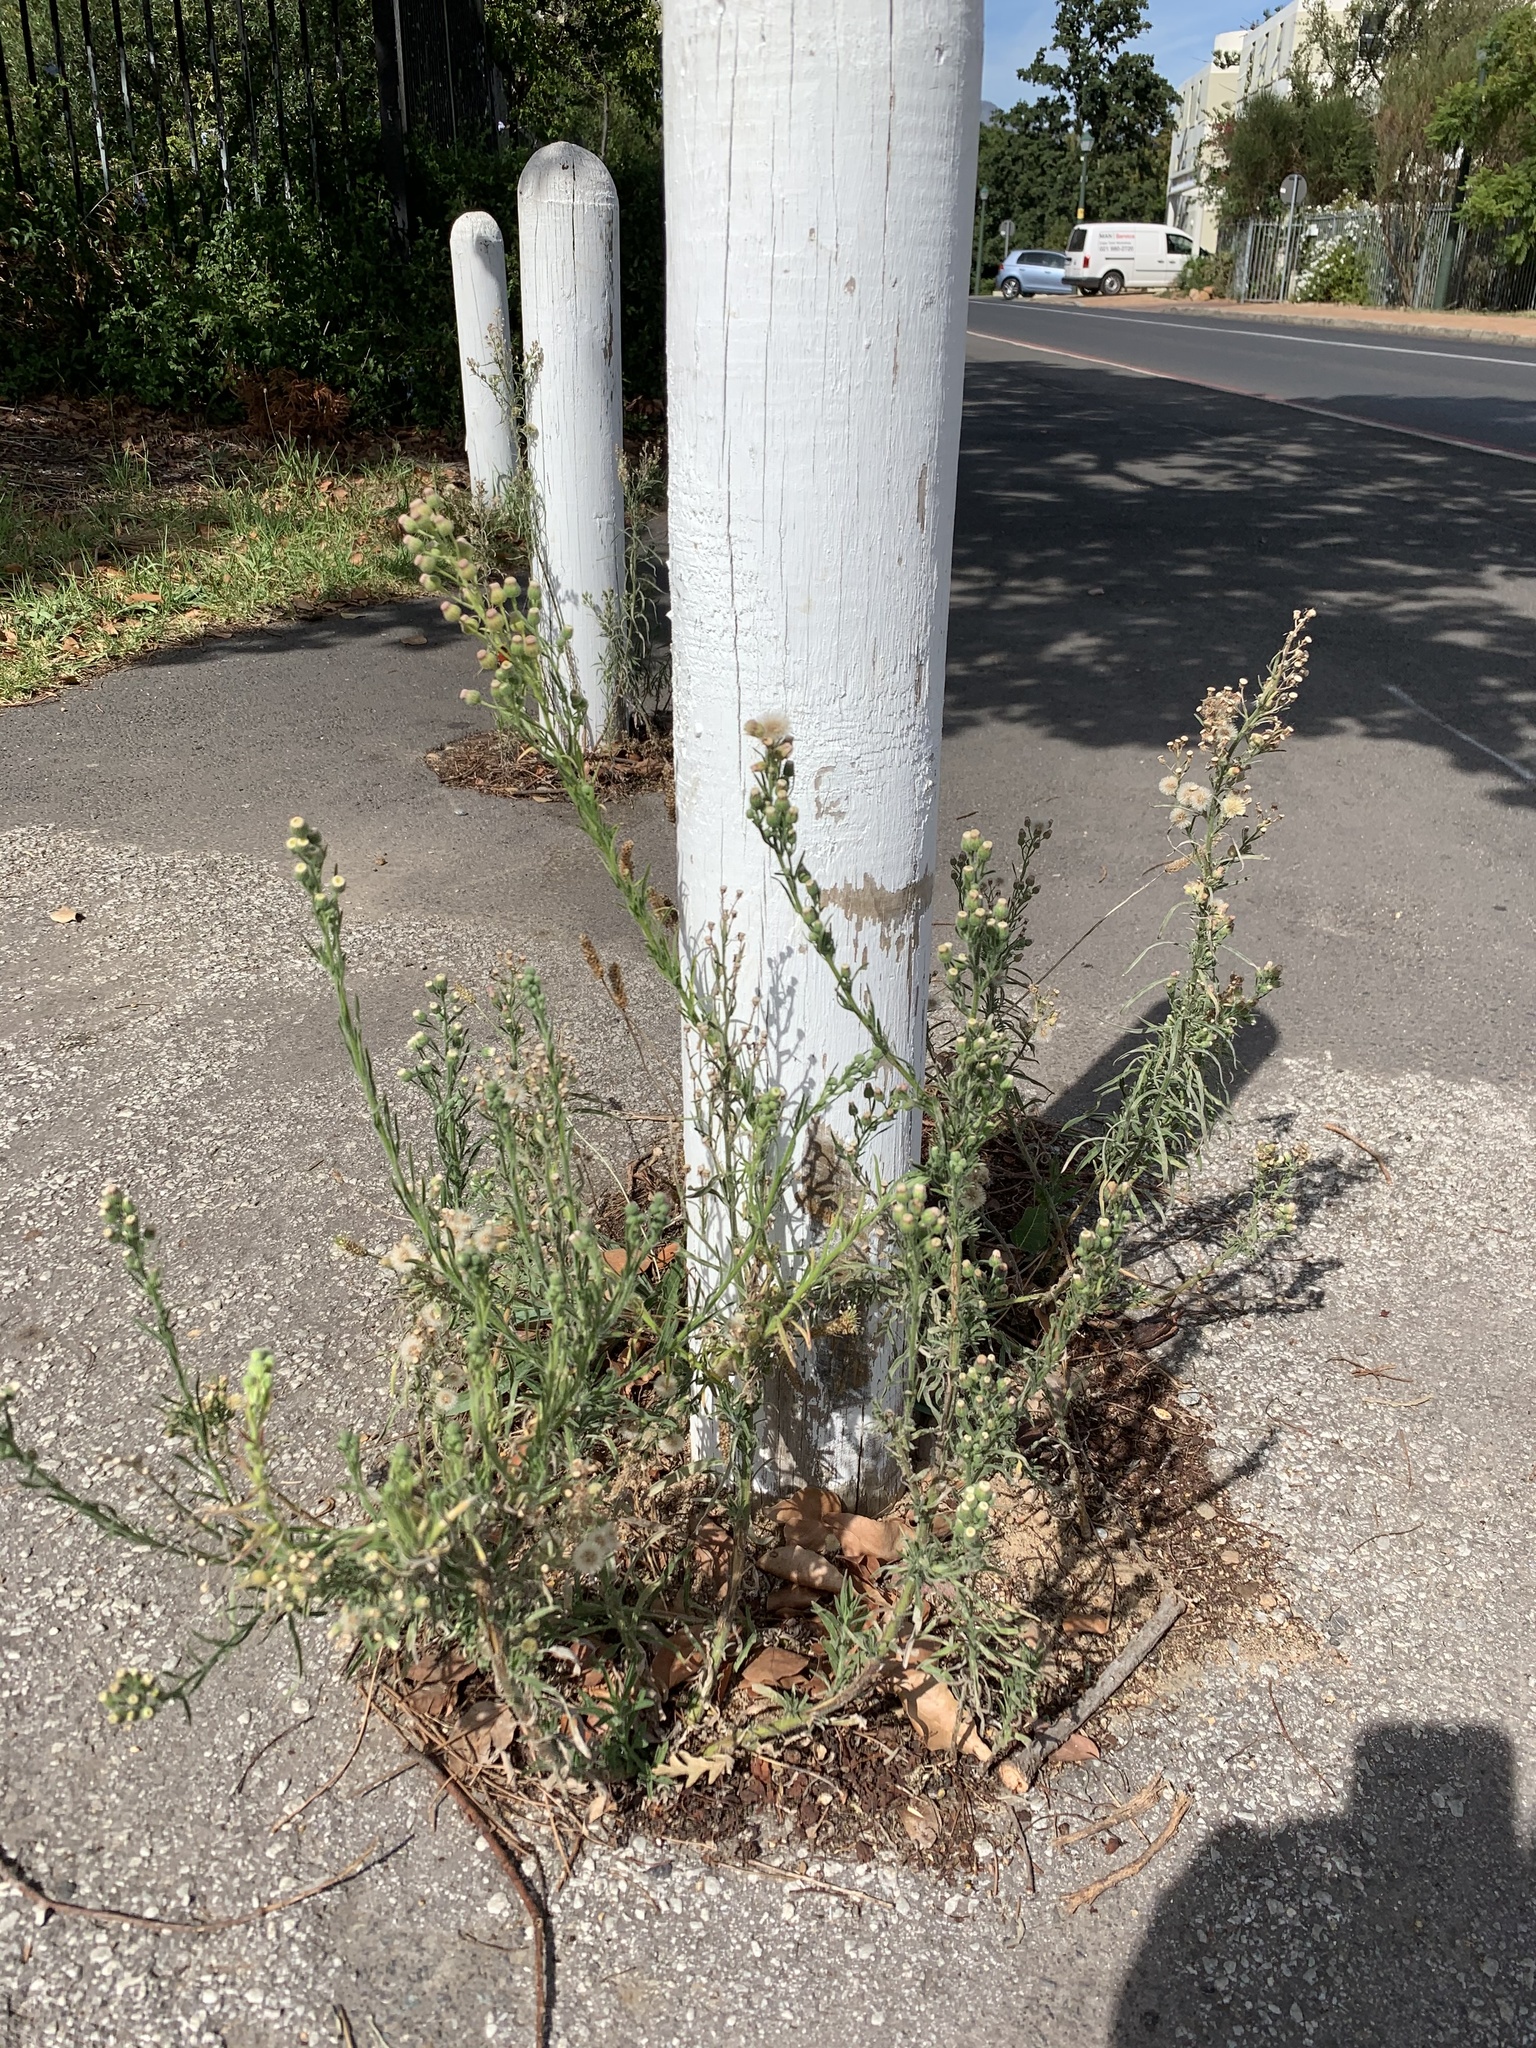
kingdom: Plantae
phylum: Tracheophyta
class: Magnoliopsida
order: Asterales
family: Asteraceae
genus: Erigeron
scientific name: Erigeron bonariensis
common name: Argentine fleabane
